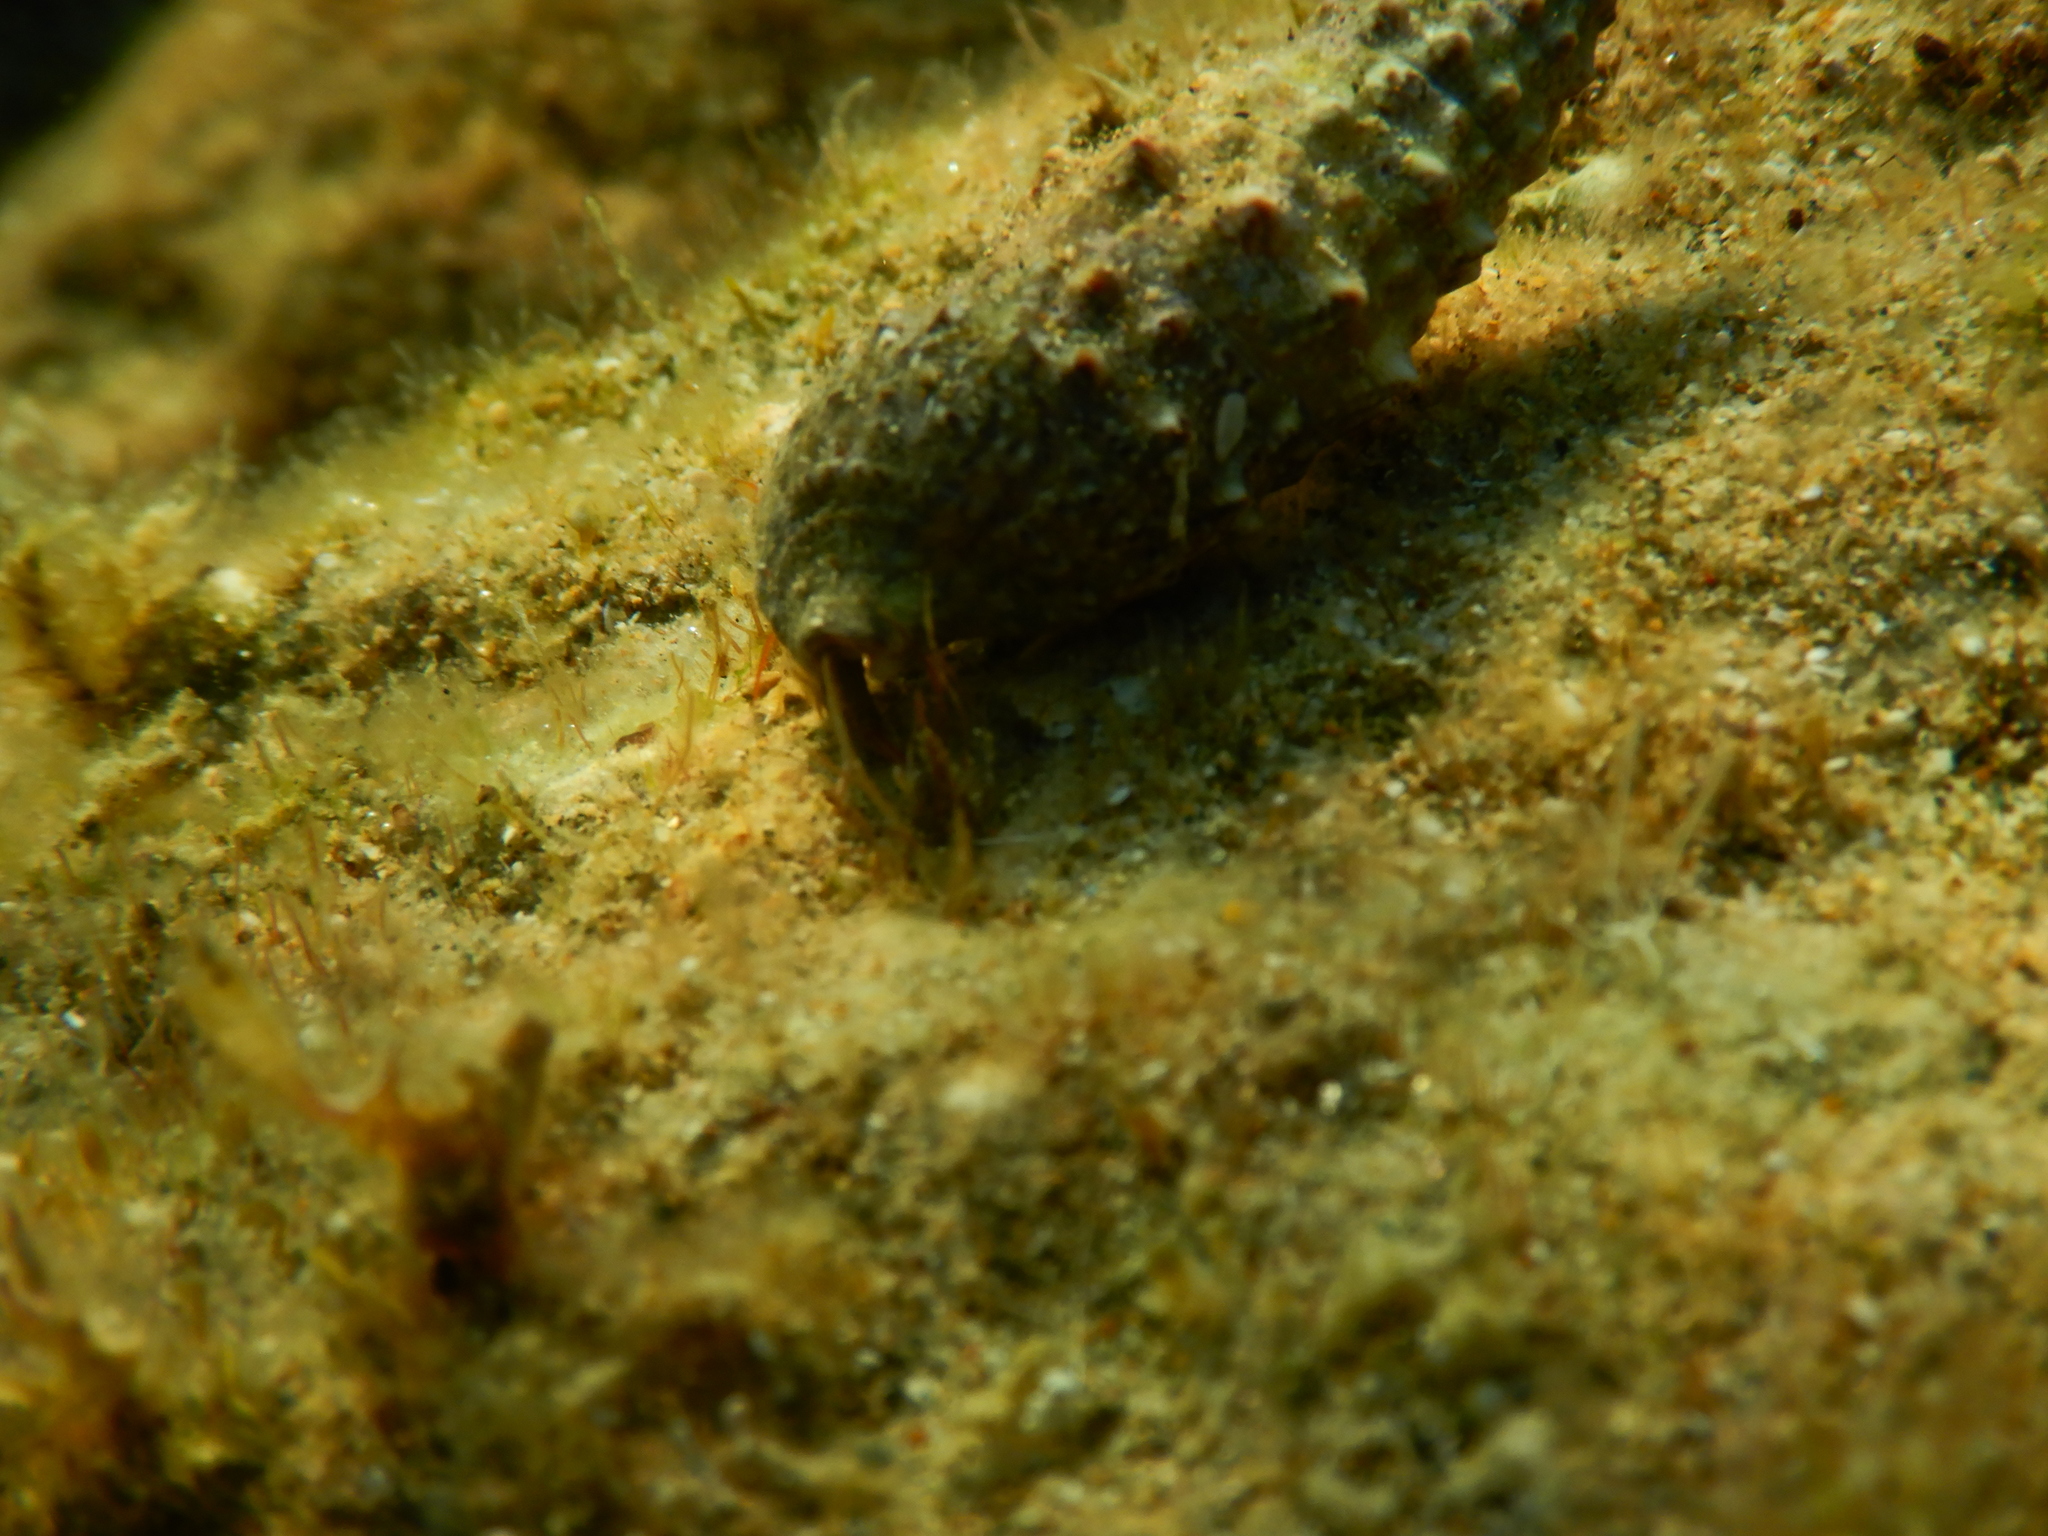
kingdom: Animalia
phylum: Arthropoda
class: Malacostraca
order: Decapoda
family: Diogenidae
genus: Clibanarius
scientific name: Clibanarius erythropus
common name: Hermit crab
